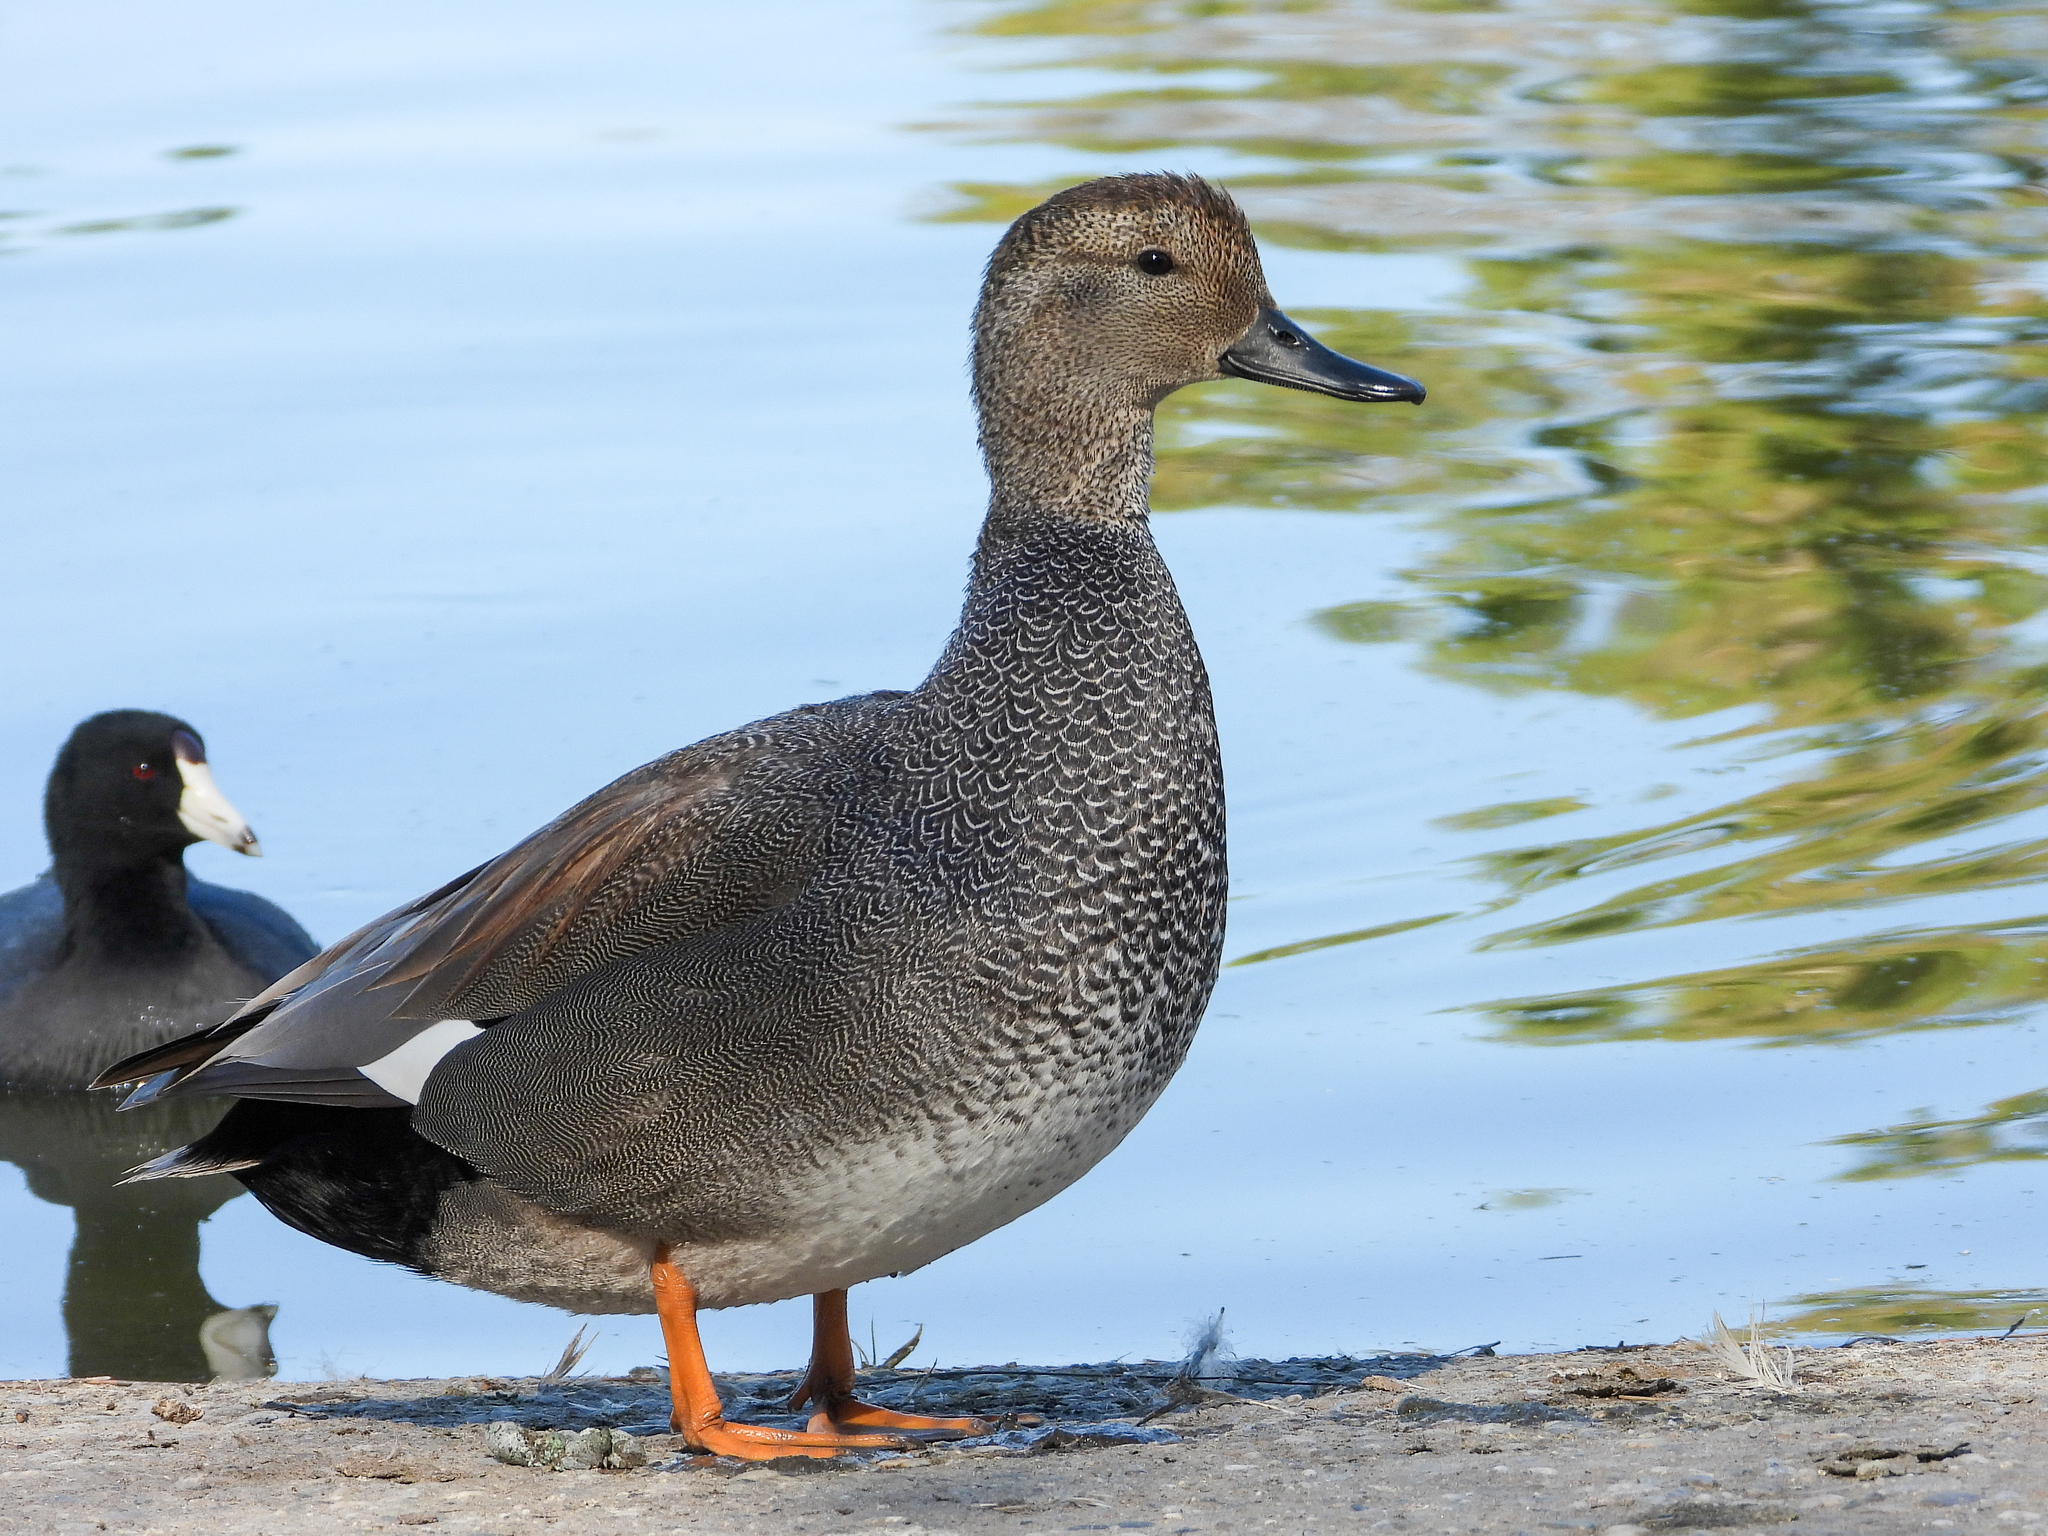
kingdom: Animalia
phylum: Chordata
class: Aves
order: Anseriformes
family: Anatidae
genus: Mareca
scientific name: Mareca strepera
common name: Gadwall
